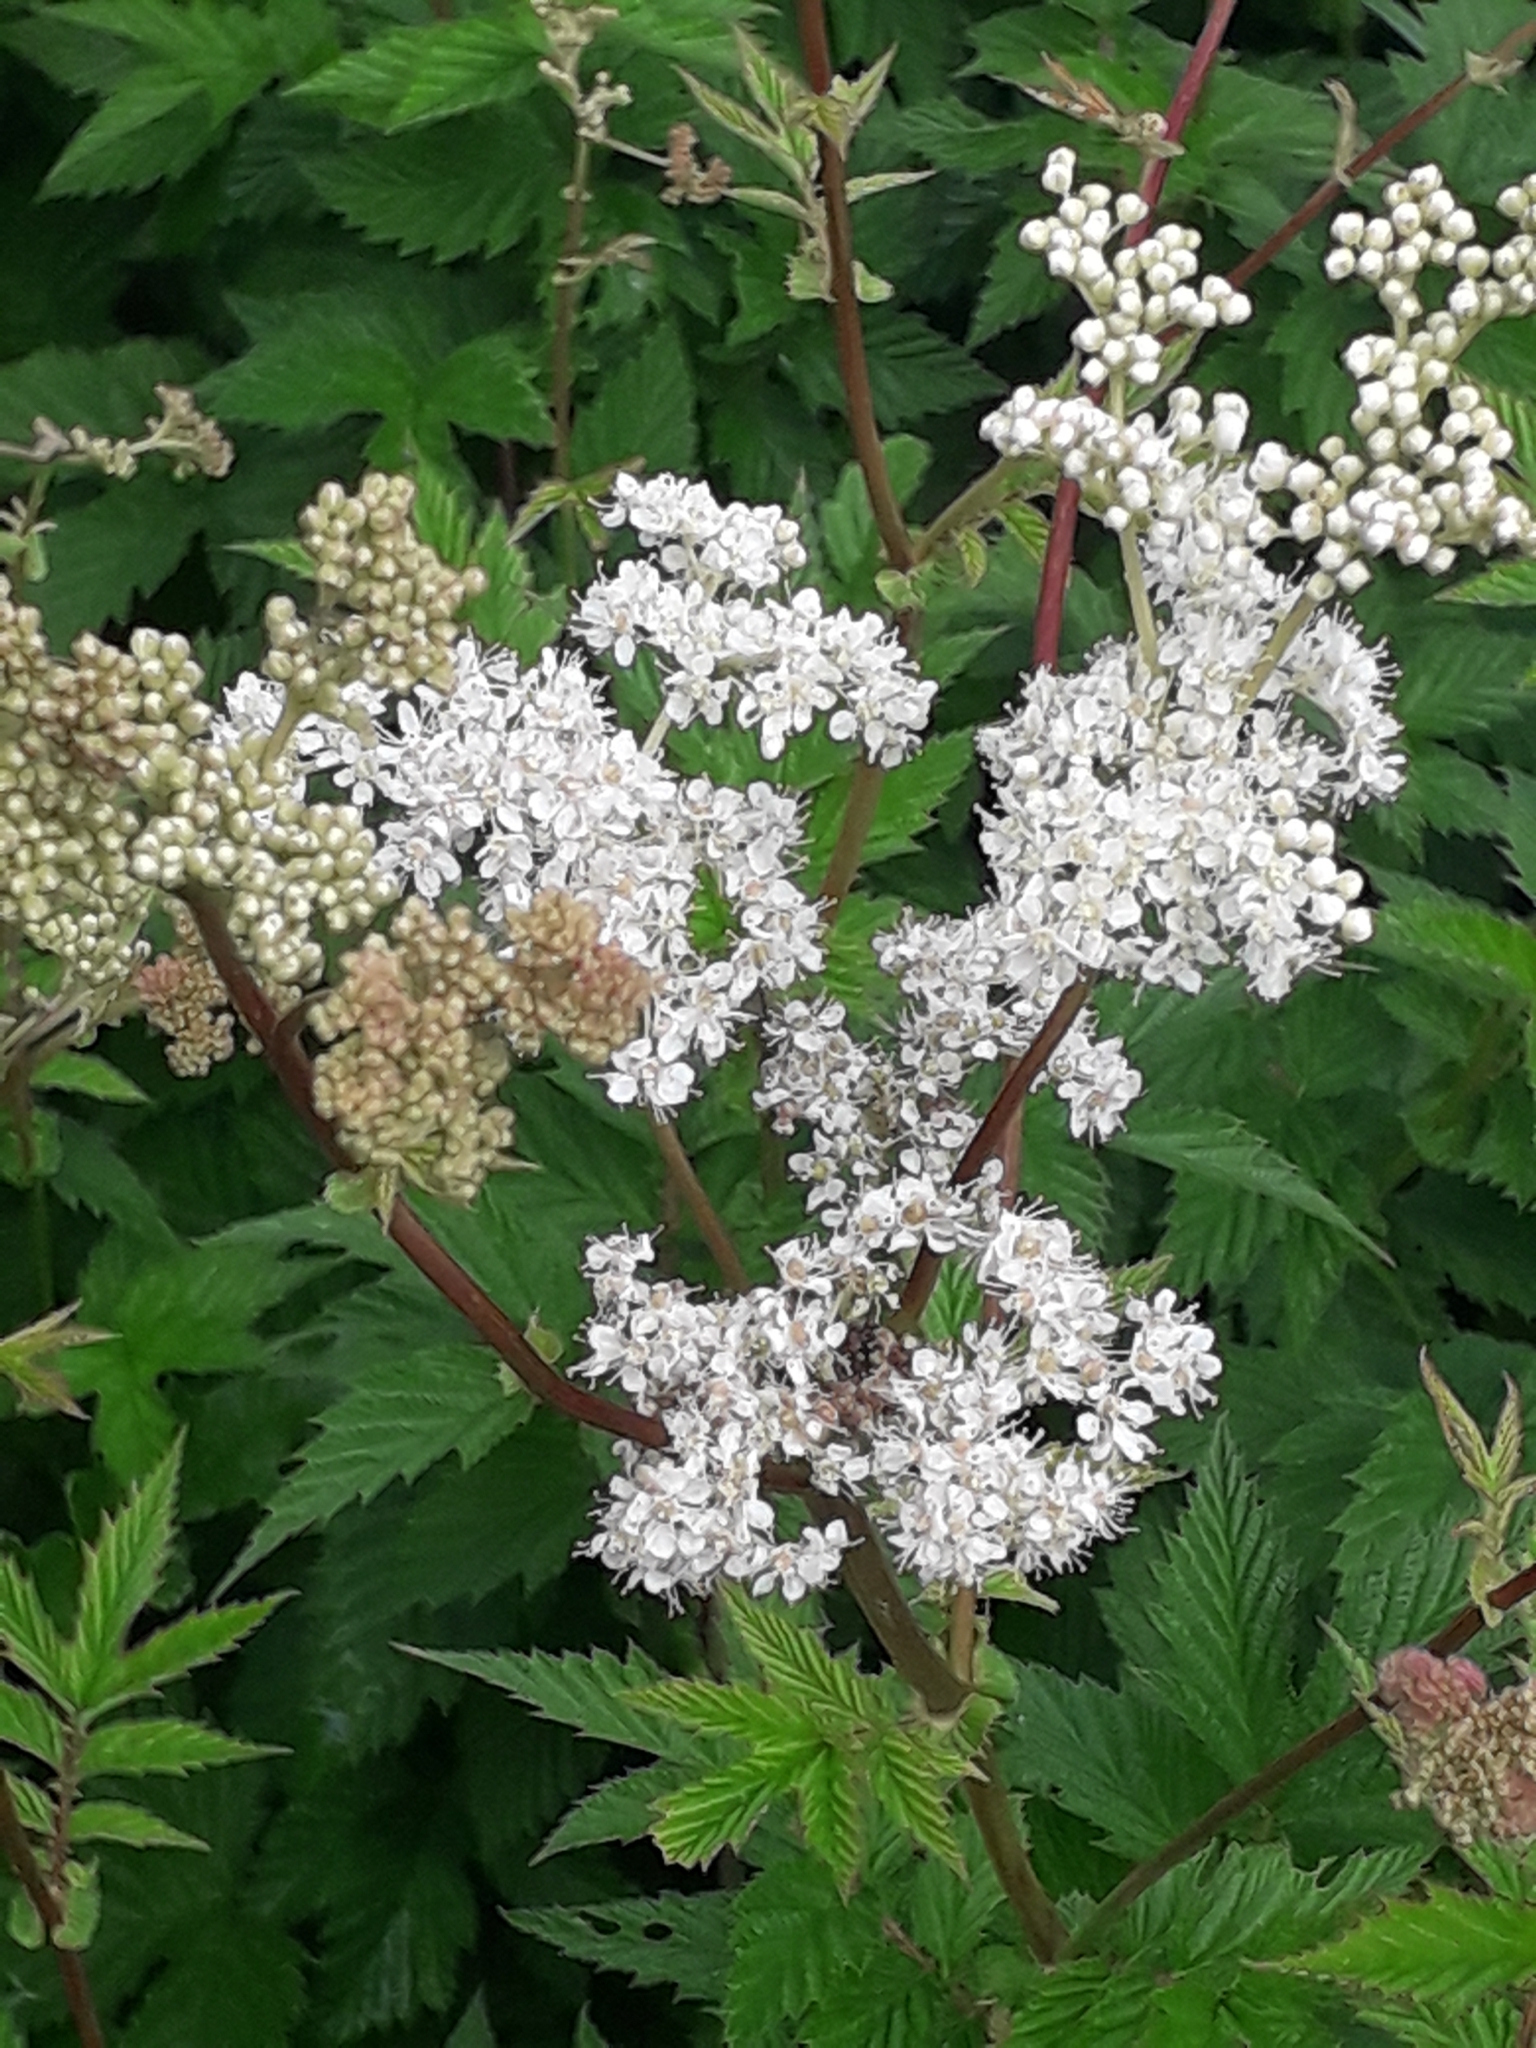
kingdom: Plantae
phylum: Tracheophyta
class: Magnoliopsida
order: Rosales
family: Rosaceae
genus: Filipendula
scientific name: Filipendula ulmaria
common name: Meadowsweet
